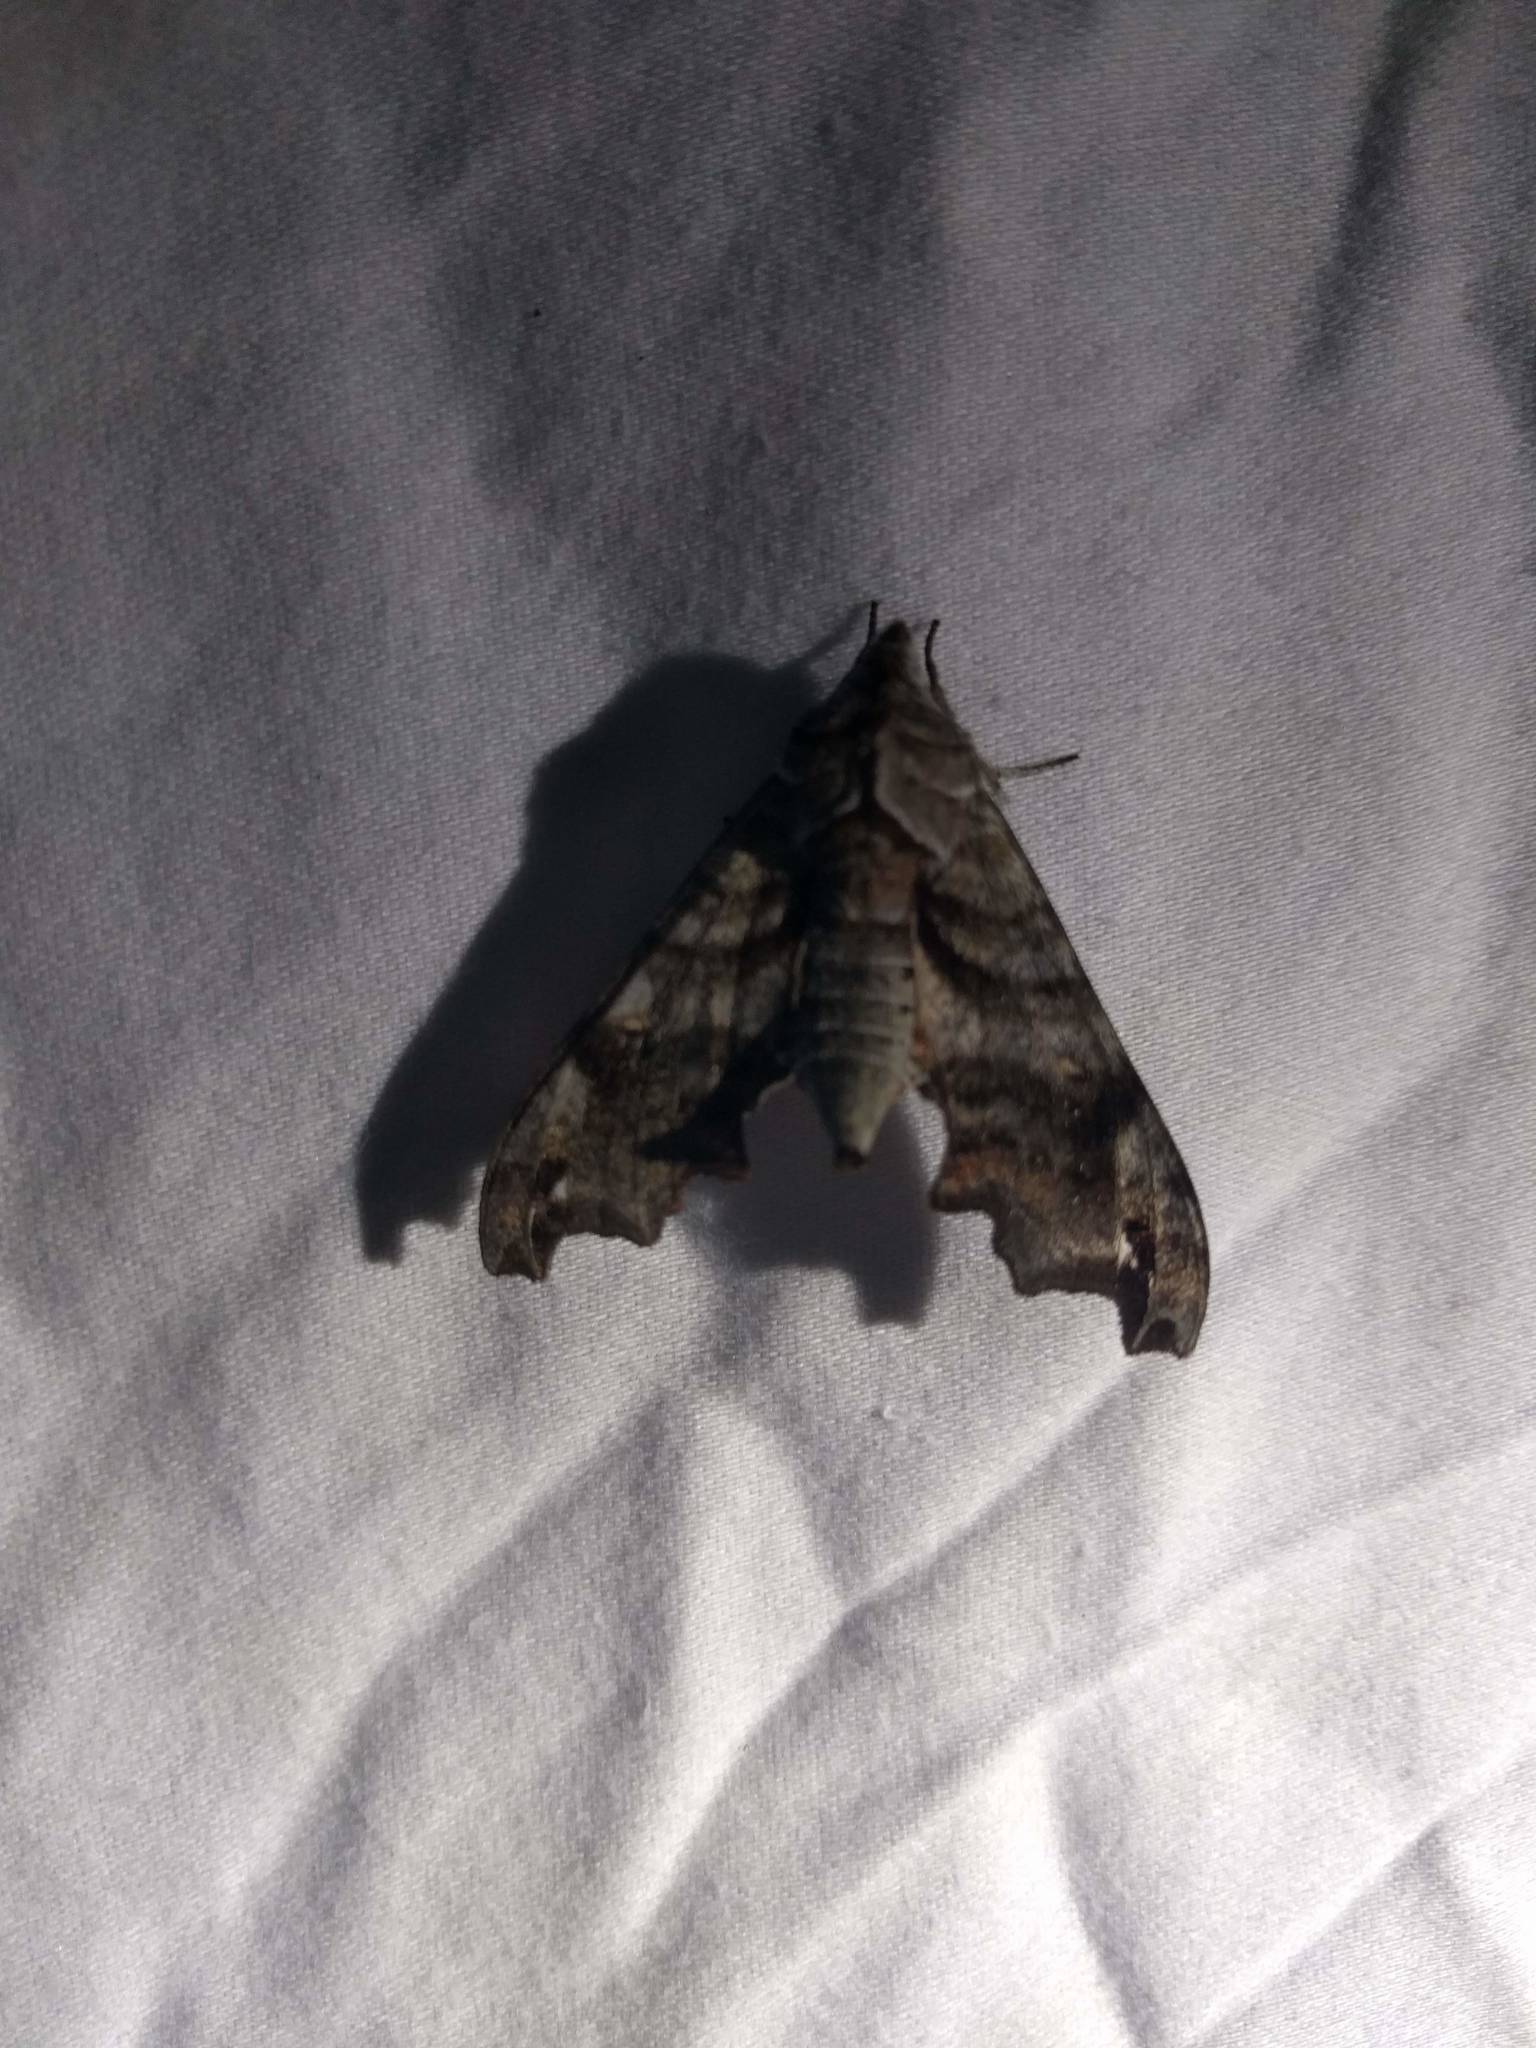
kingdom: Animalia
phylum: Arthropoda
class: Insecta
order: Lepidoptera
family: Sphingidae
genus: Deidamia
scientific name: Deidamia inscriptum
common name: Lettered sphinx
